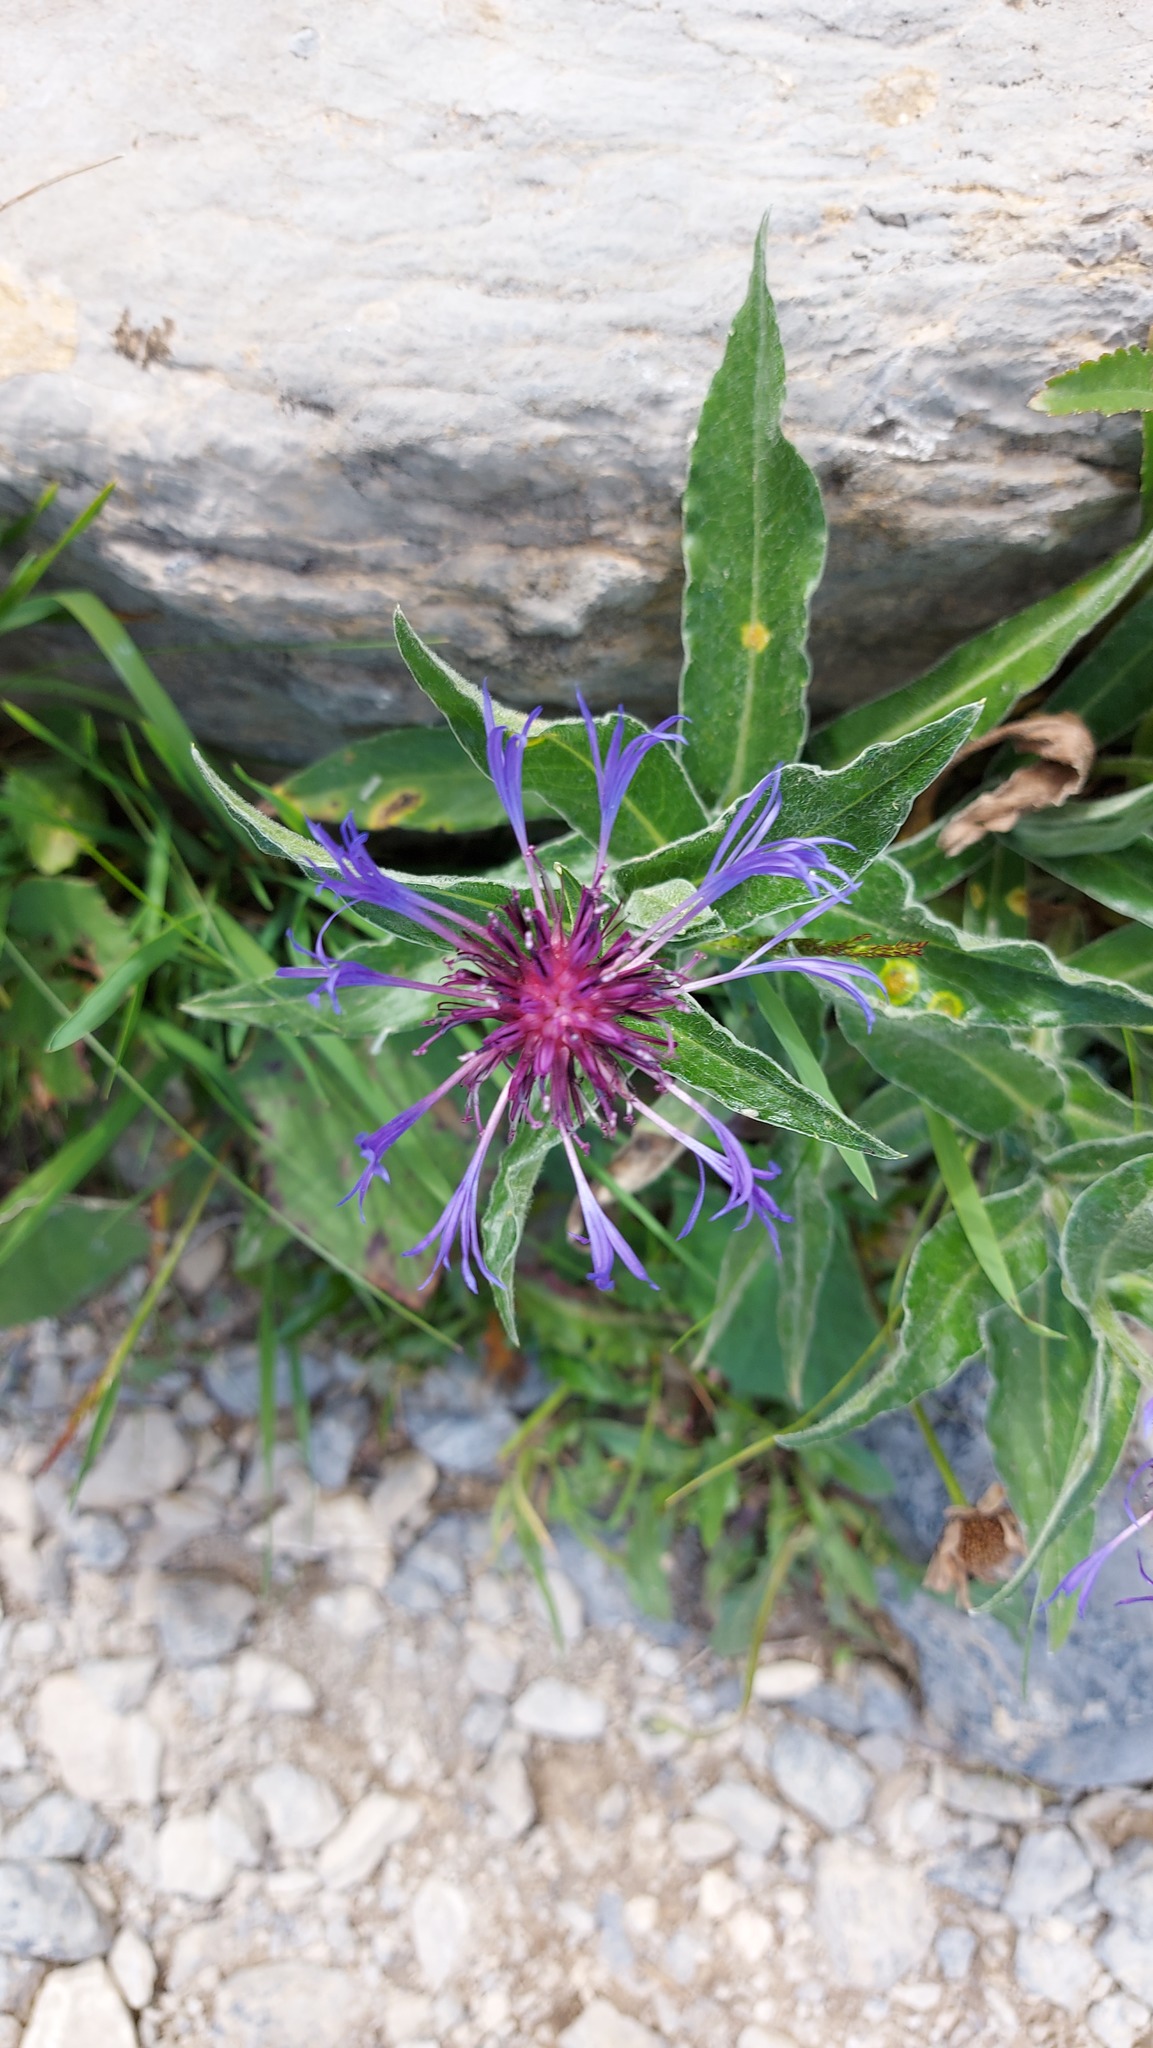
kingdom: Plantae
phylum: Tracheophyta
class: Magnoliopsida
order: Asterales
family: Asteraceae
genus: Centaurea
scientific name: Centaurea montana
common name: Perennial cornflower
